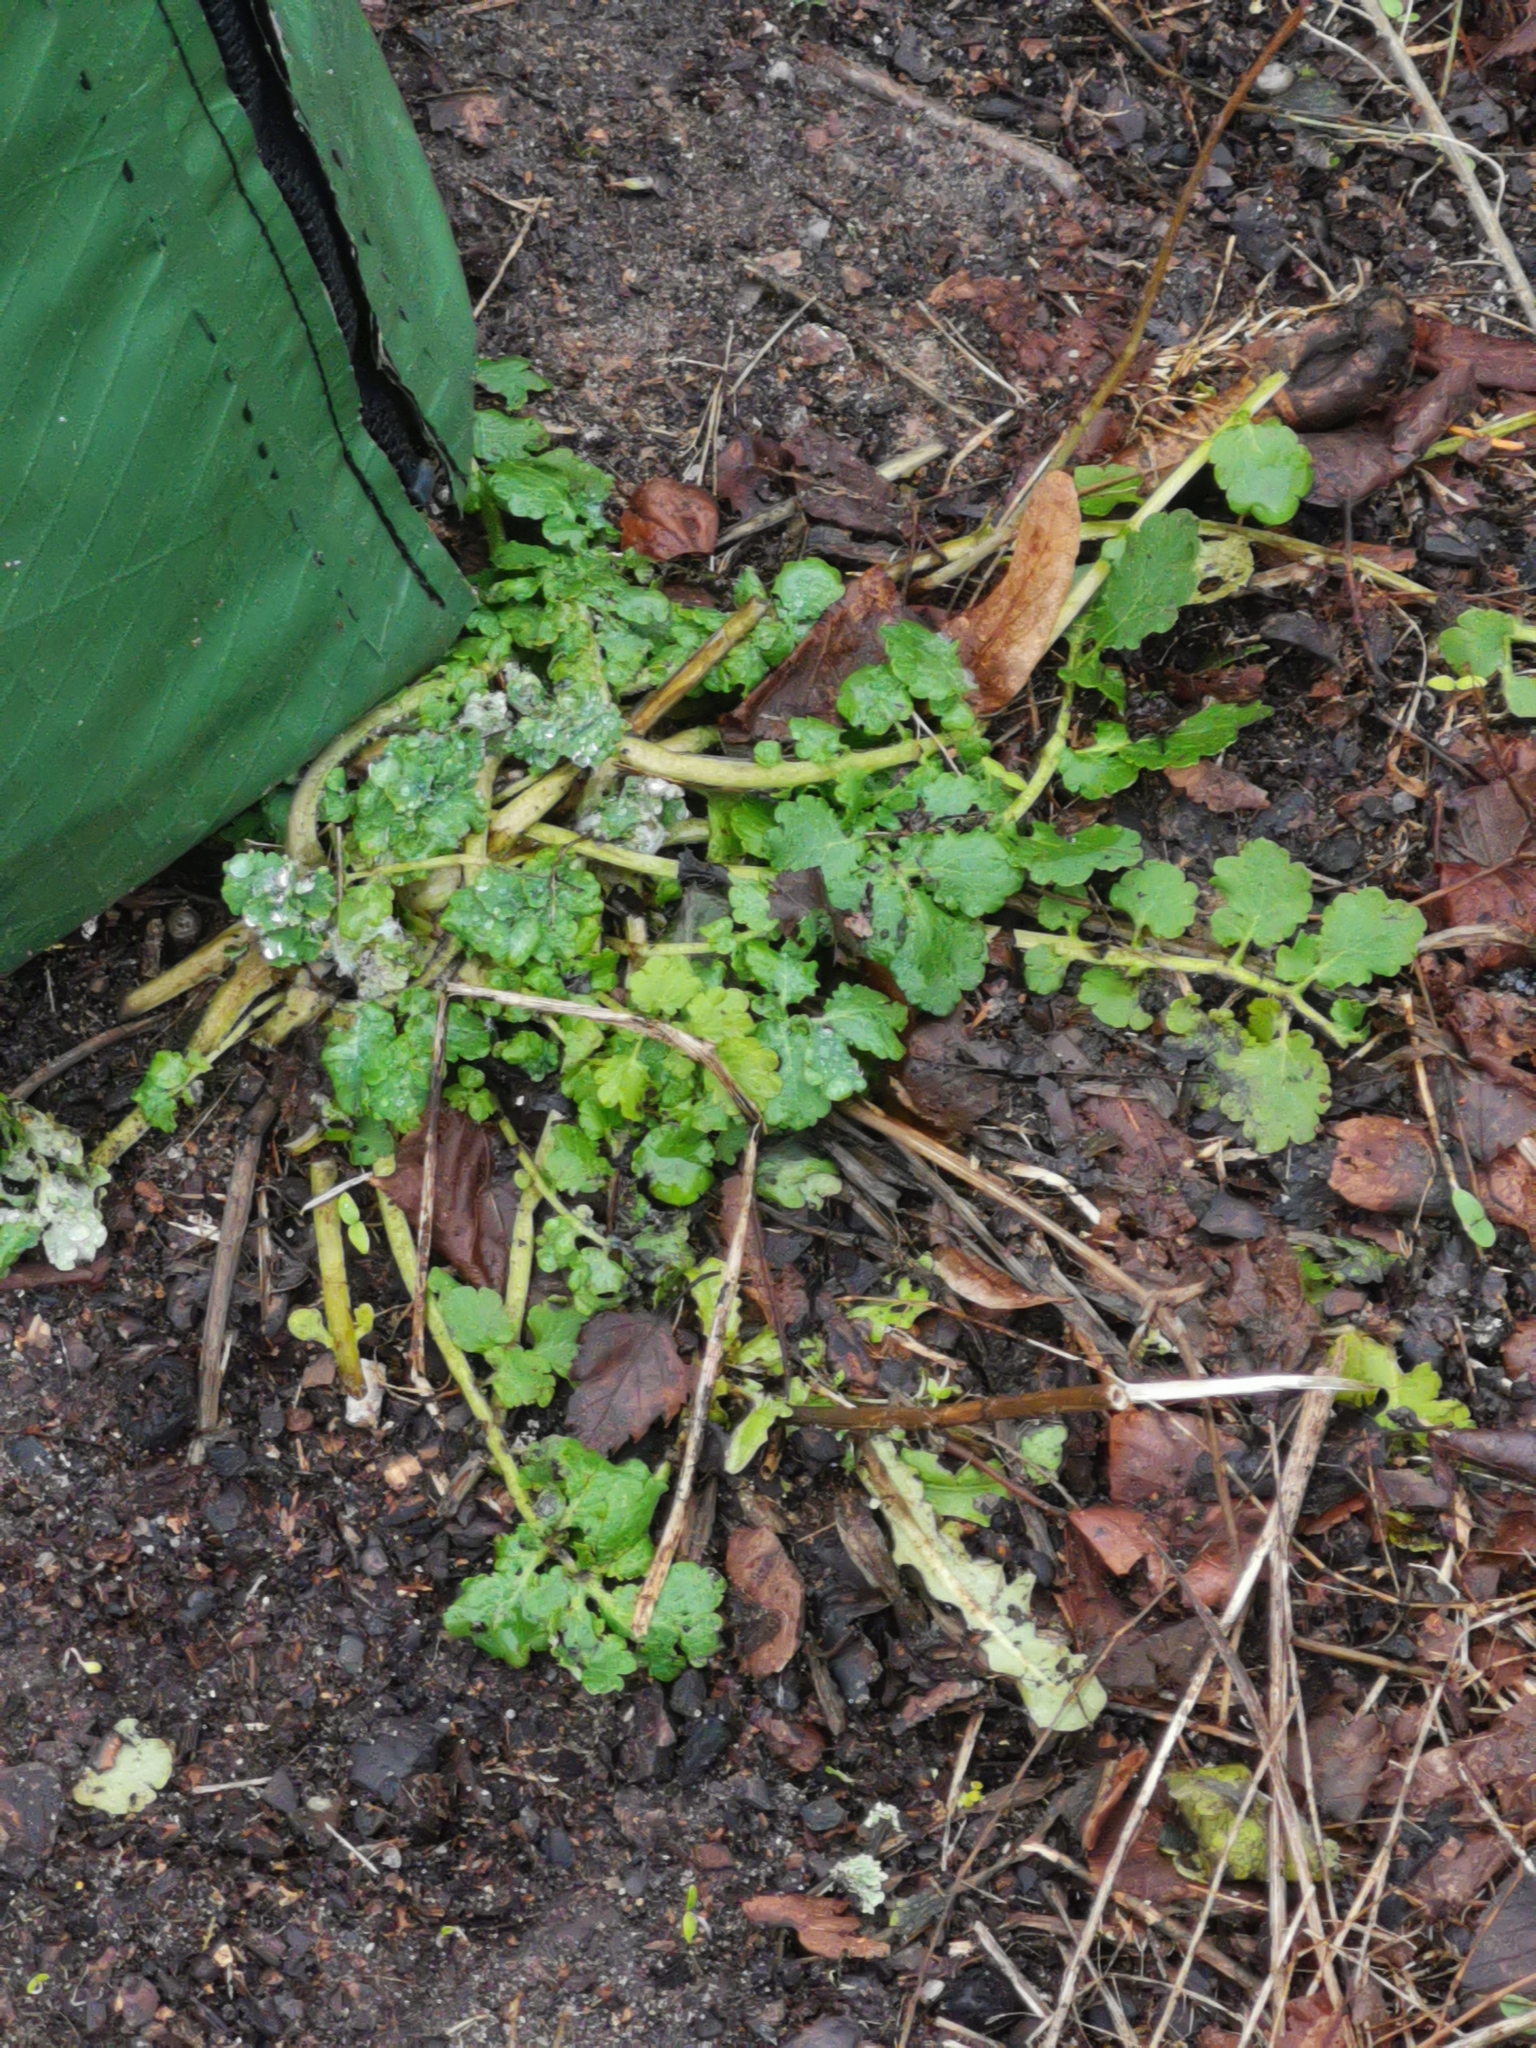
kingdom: Plantae
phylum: Tracheophyta
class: Magnoliopsida
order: Ranunculales
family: Papaveraceae
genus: Chelidonium
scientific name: Chelidonium majus
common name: Greater celandine
